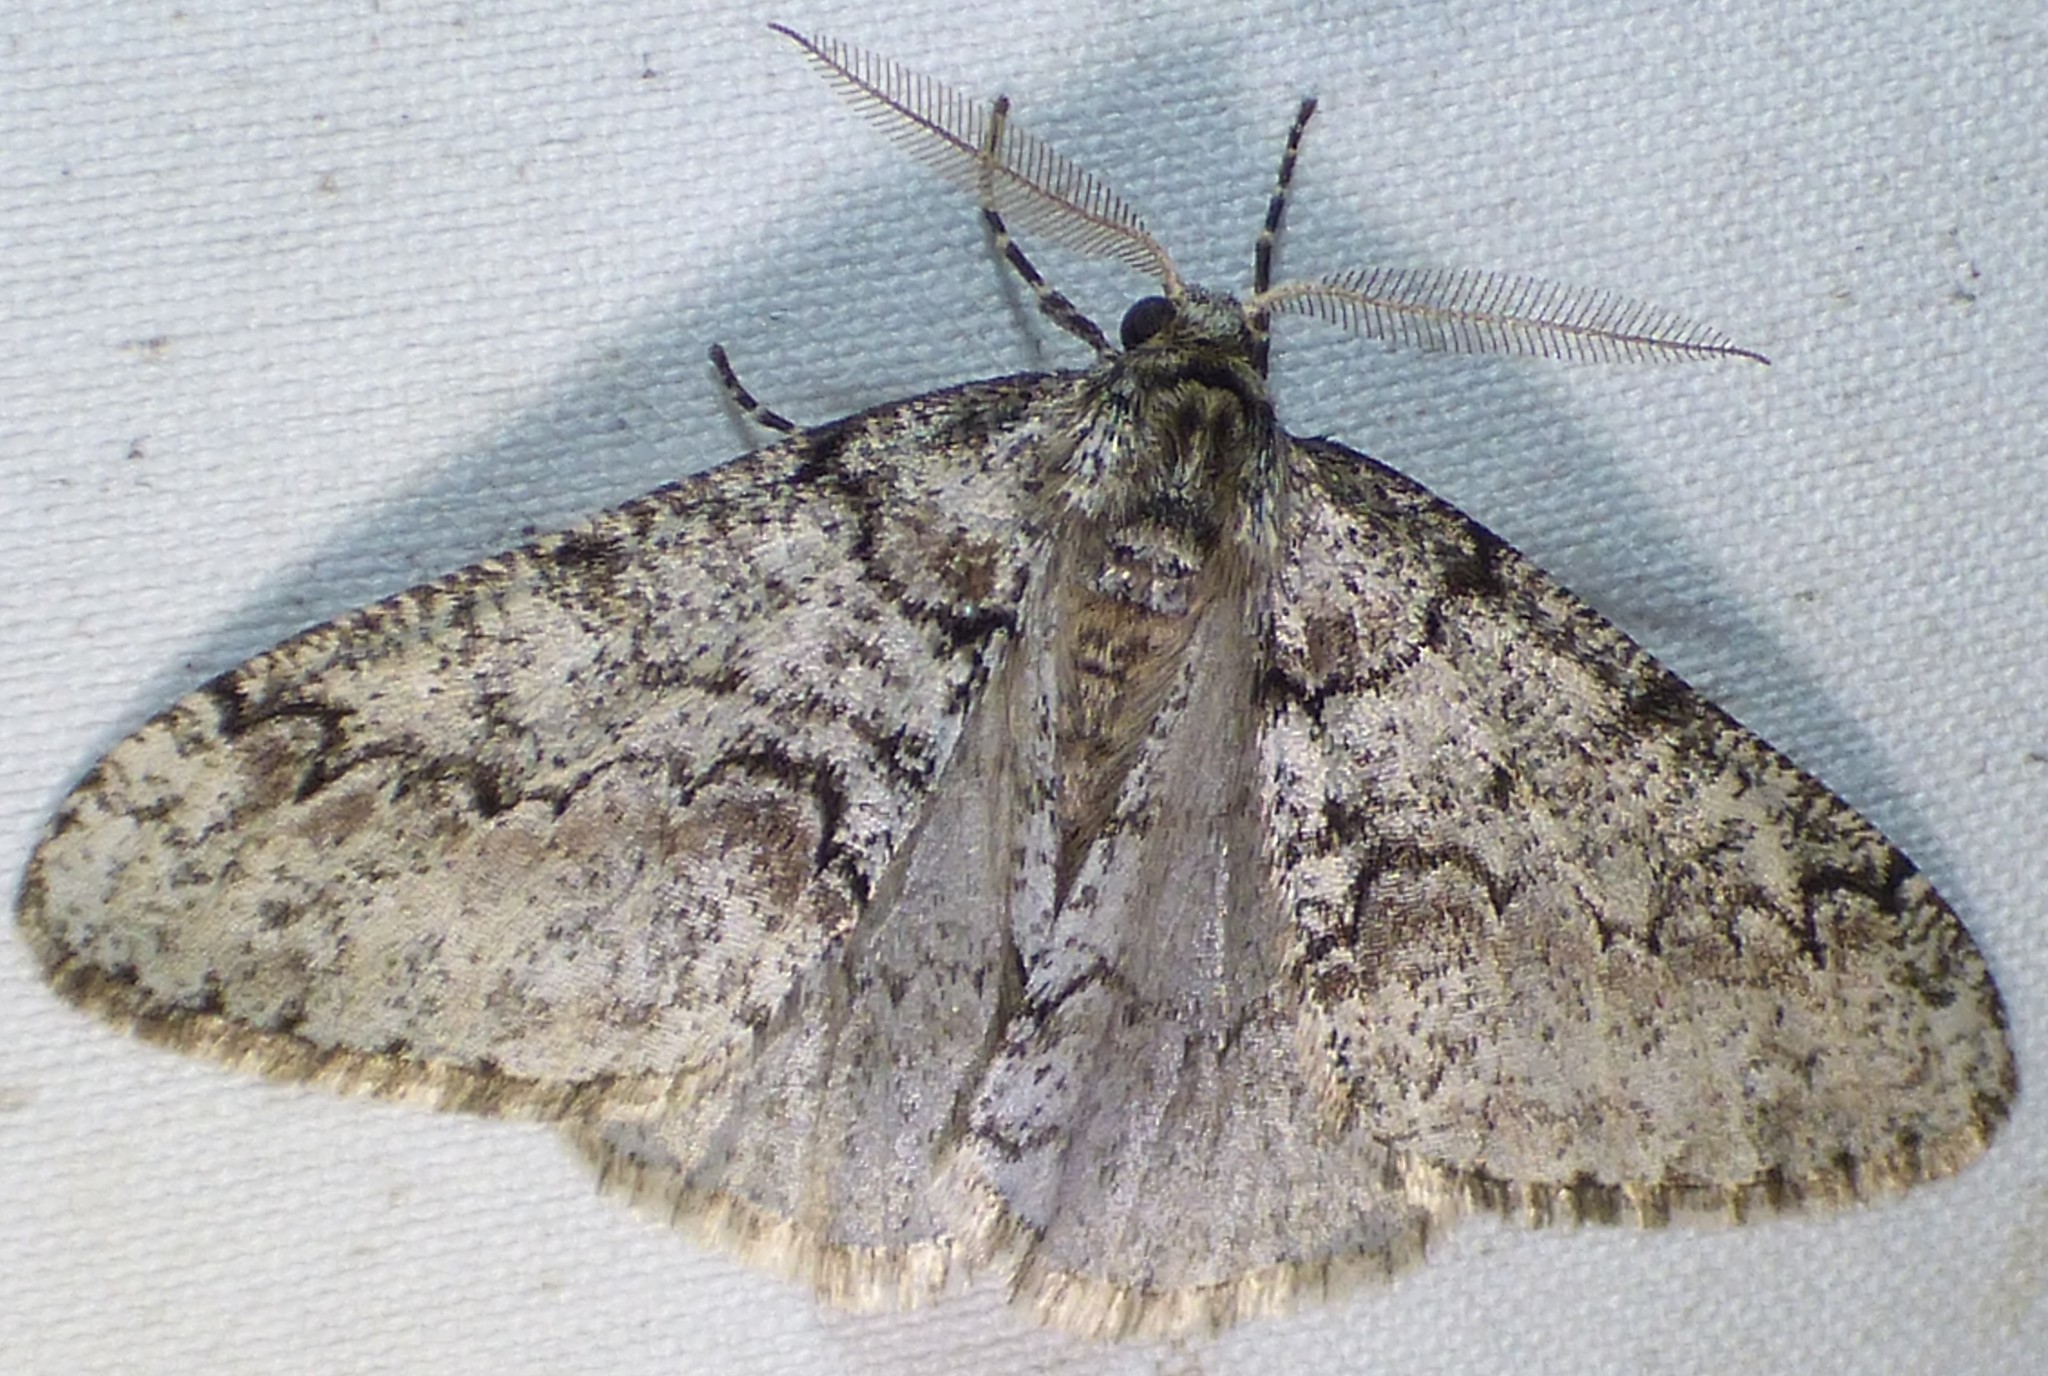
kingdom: Animalia
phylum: Arthropoda
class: Insecta
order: Lepidoptera
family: Geometridae
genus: Phigalia
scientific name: Phigalia denticulata
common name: Toothed phigalia
